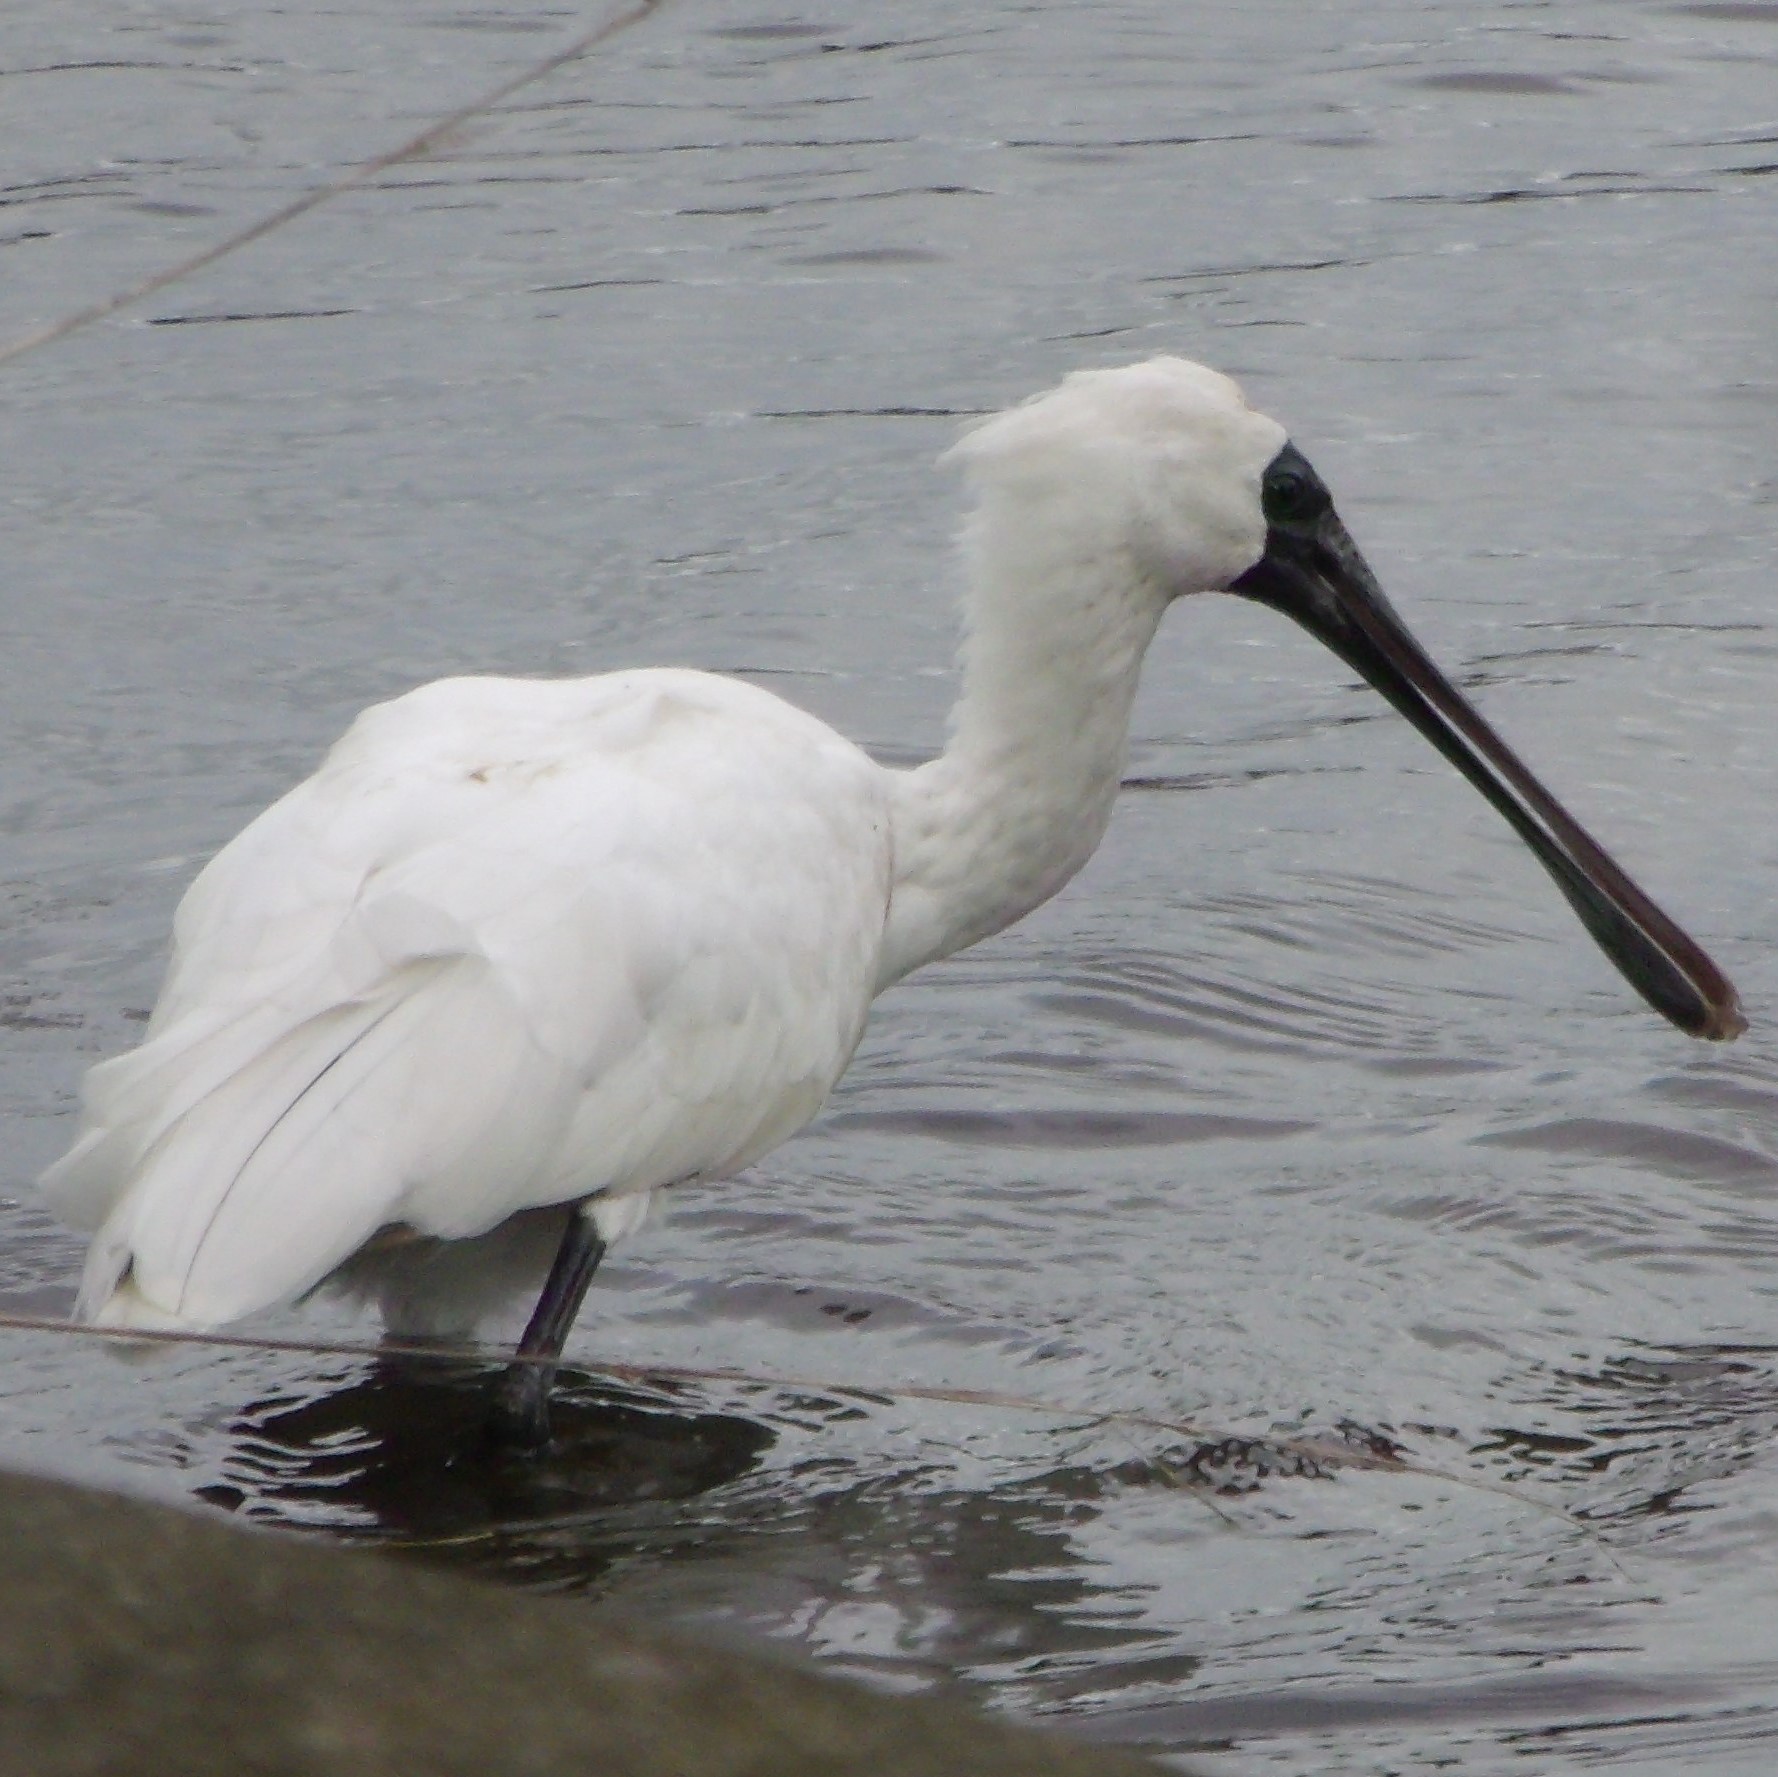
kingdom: Animalia
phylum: Chordata
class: Aves
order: Pelecaniformes
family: Threskiornithidae
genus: Platalea
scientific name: Platalea regia
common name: Royal spoonbill
